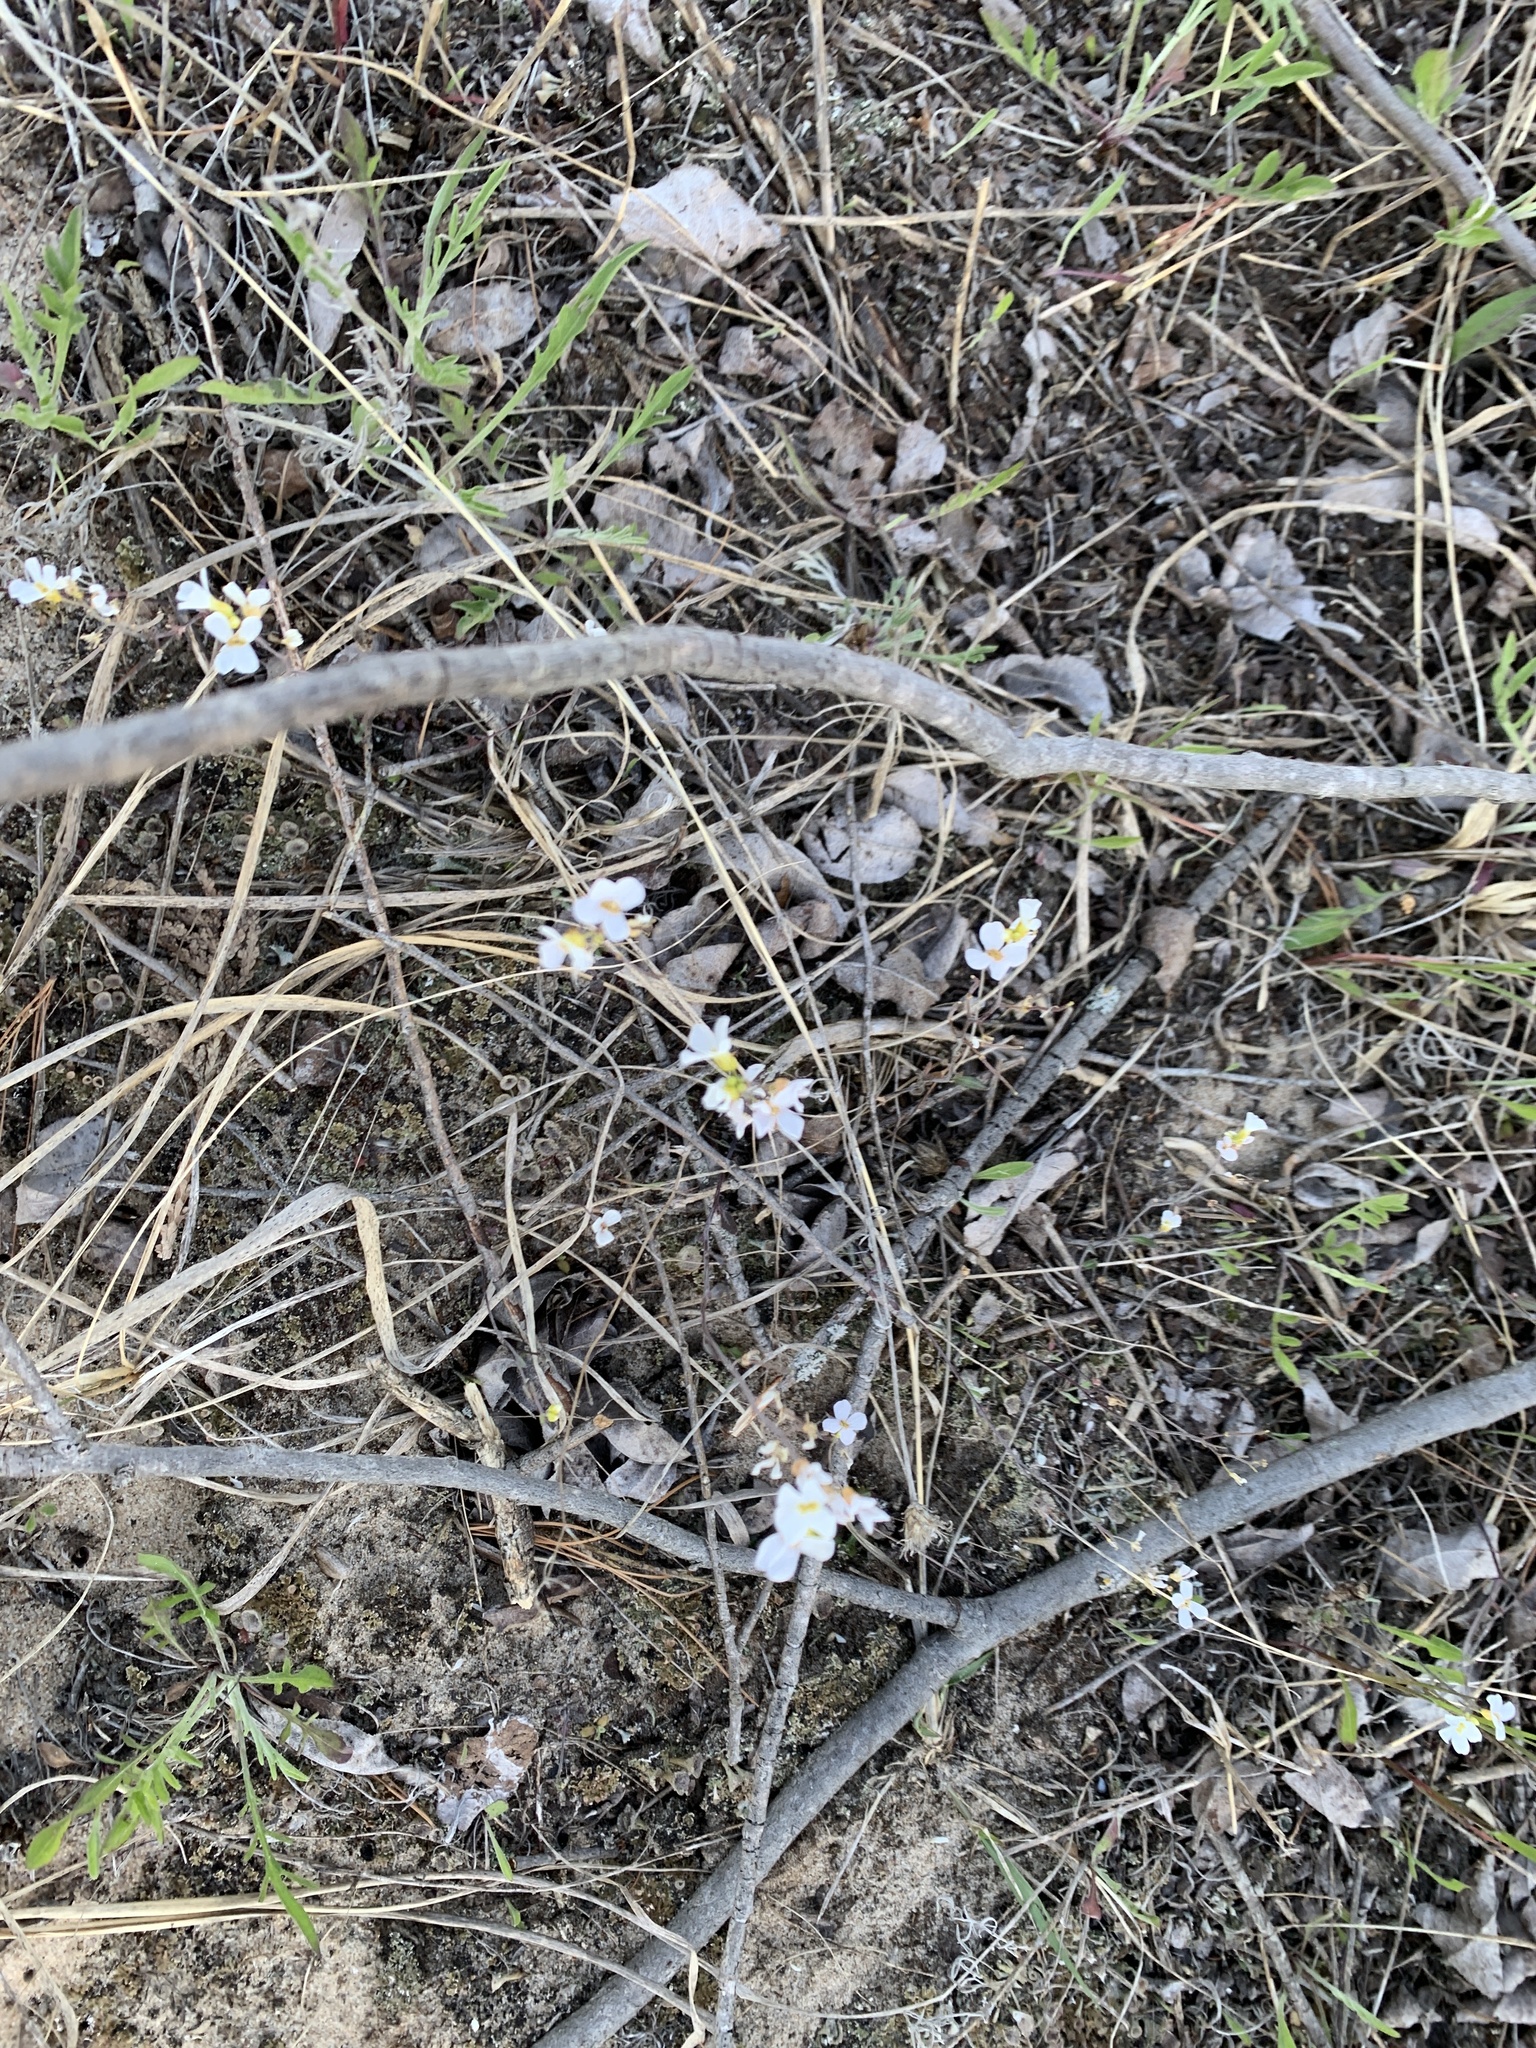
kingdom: Plantae
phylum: Tracheophyta
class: Magnoliopsida
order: Brassicales
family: Brassicaceae
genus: Arabidopsis
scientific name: Arabidopsis lyrata
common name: Lyrate rockcress
